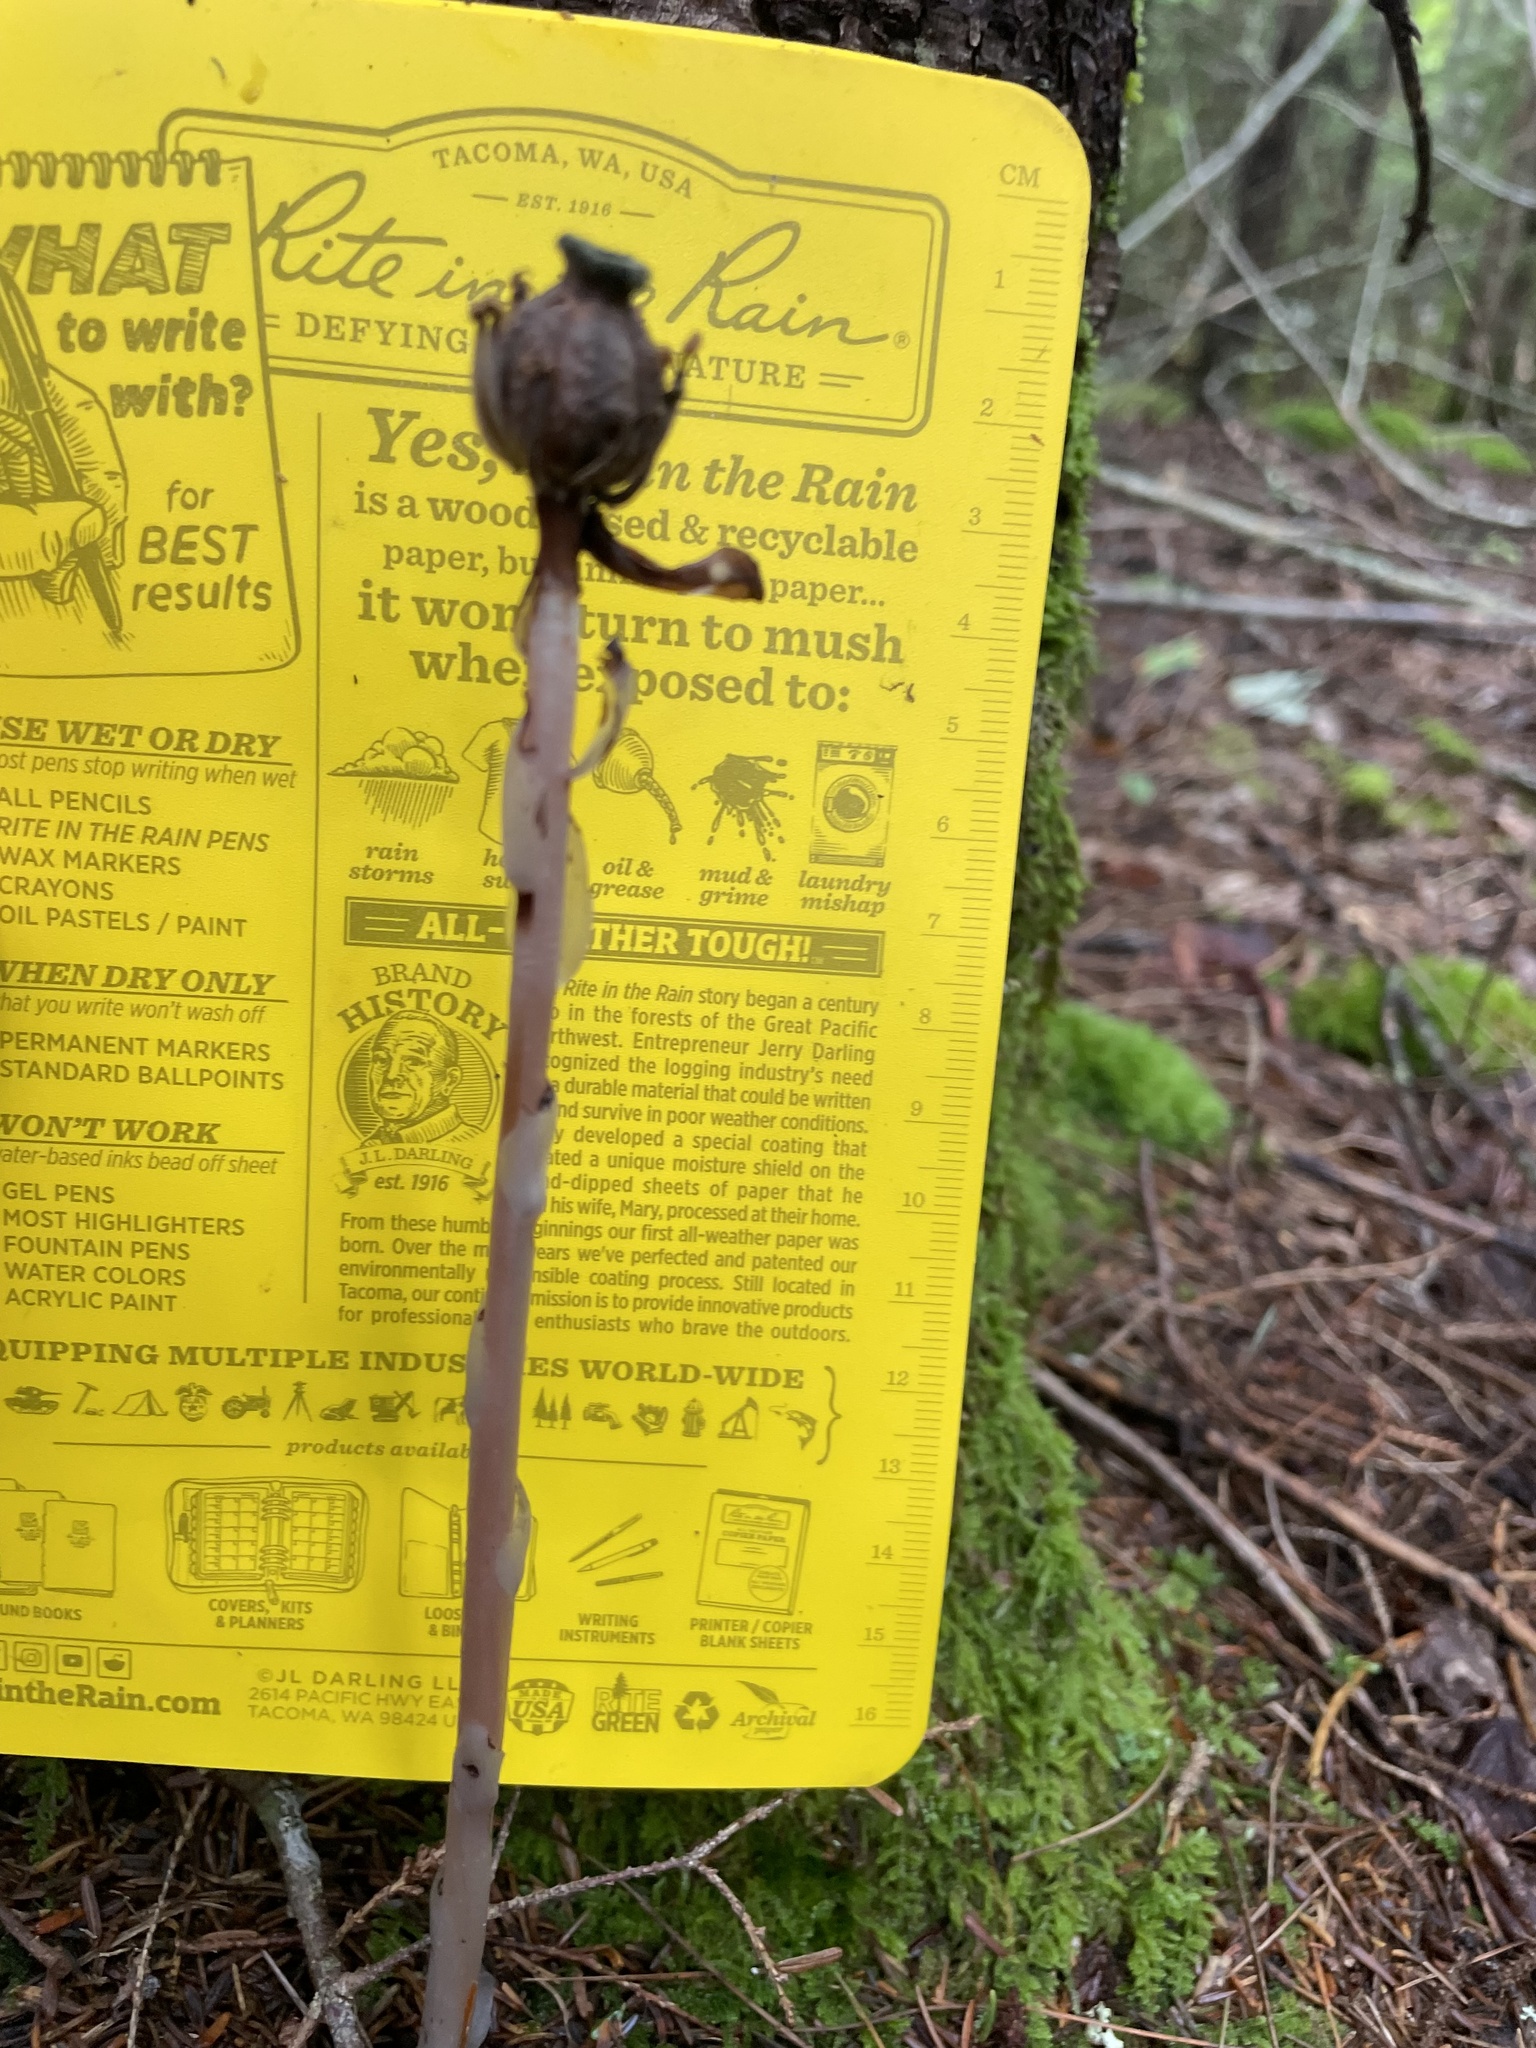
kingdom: Plantae
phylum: Tracheophyta
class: Magnoliopsida
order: Ericales
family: Ericaceae
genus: Monotropa
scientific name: Monotropa uniflora
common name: Convulsion root
